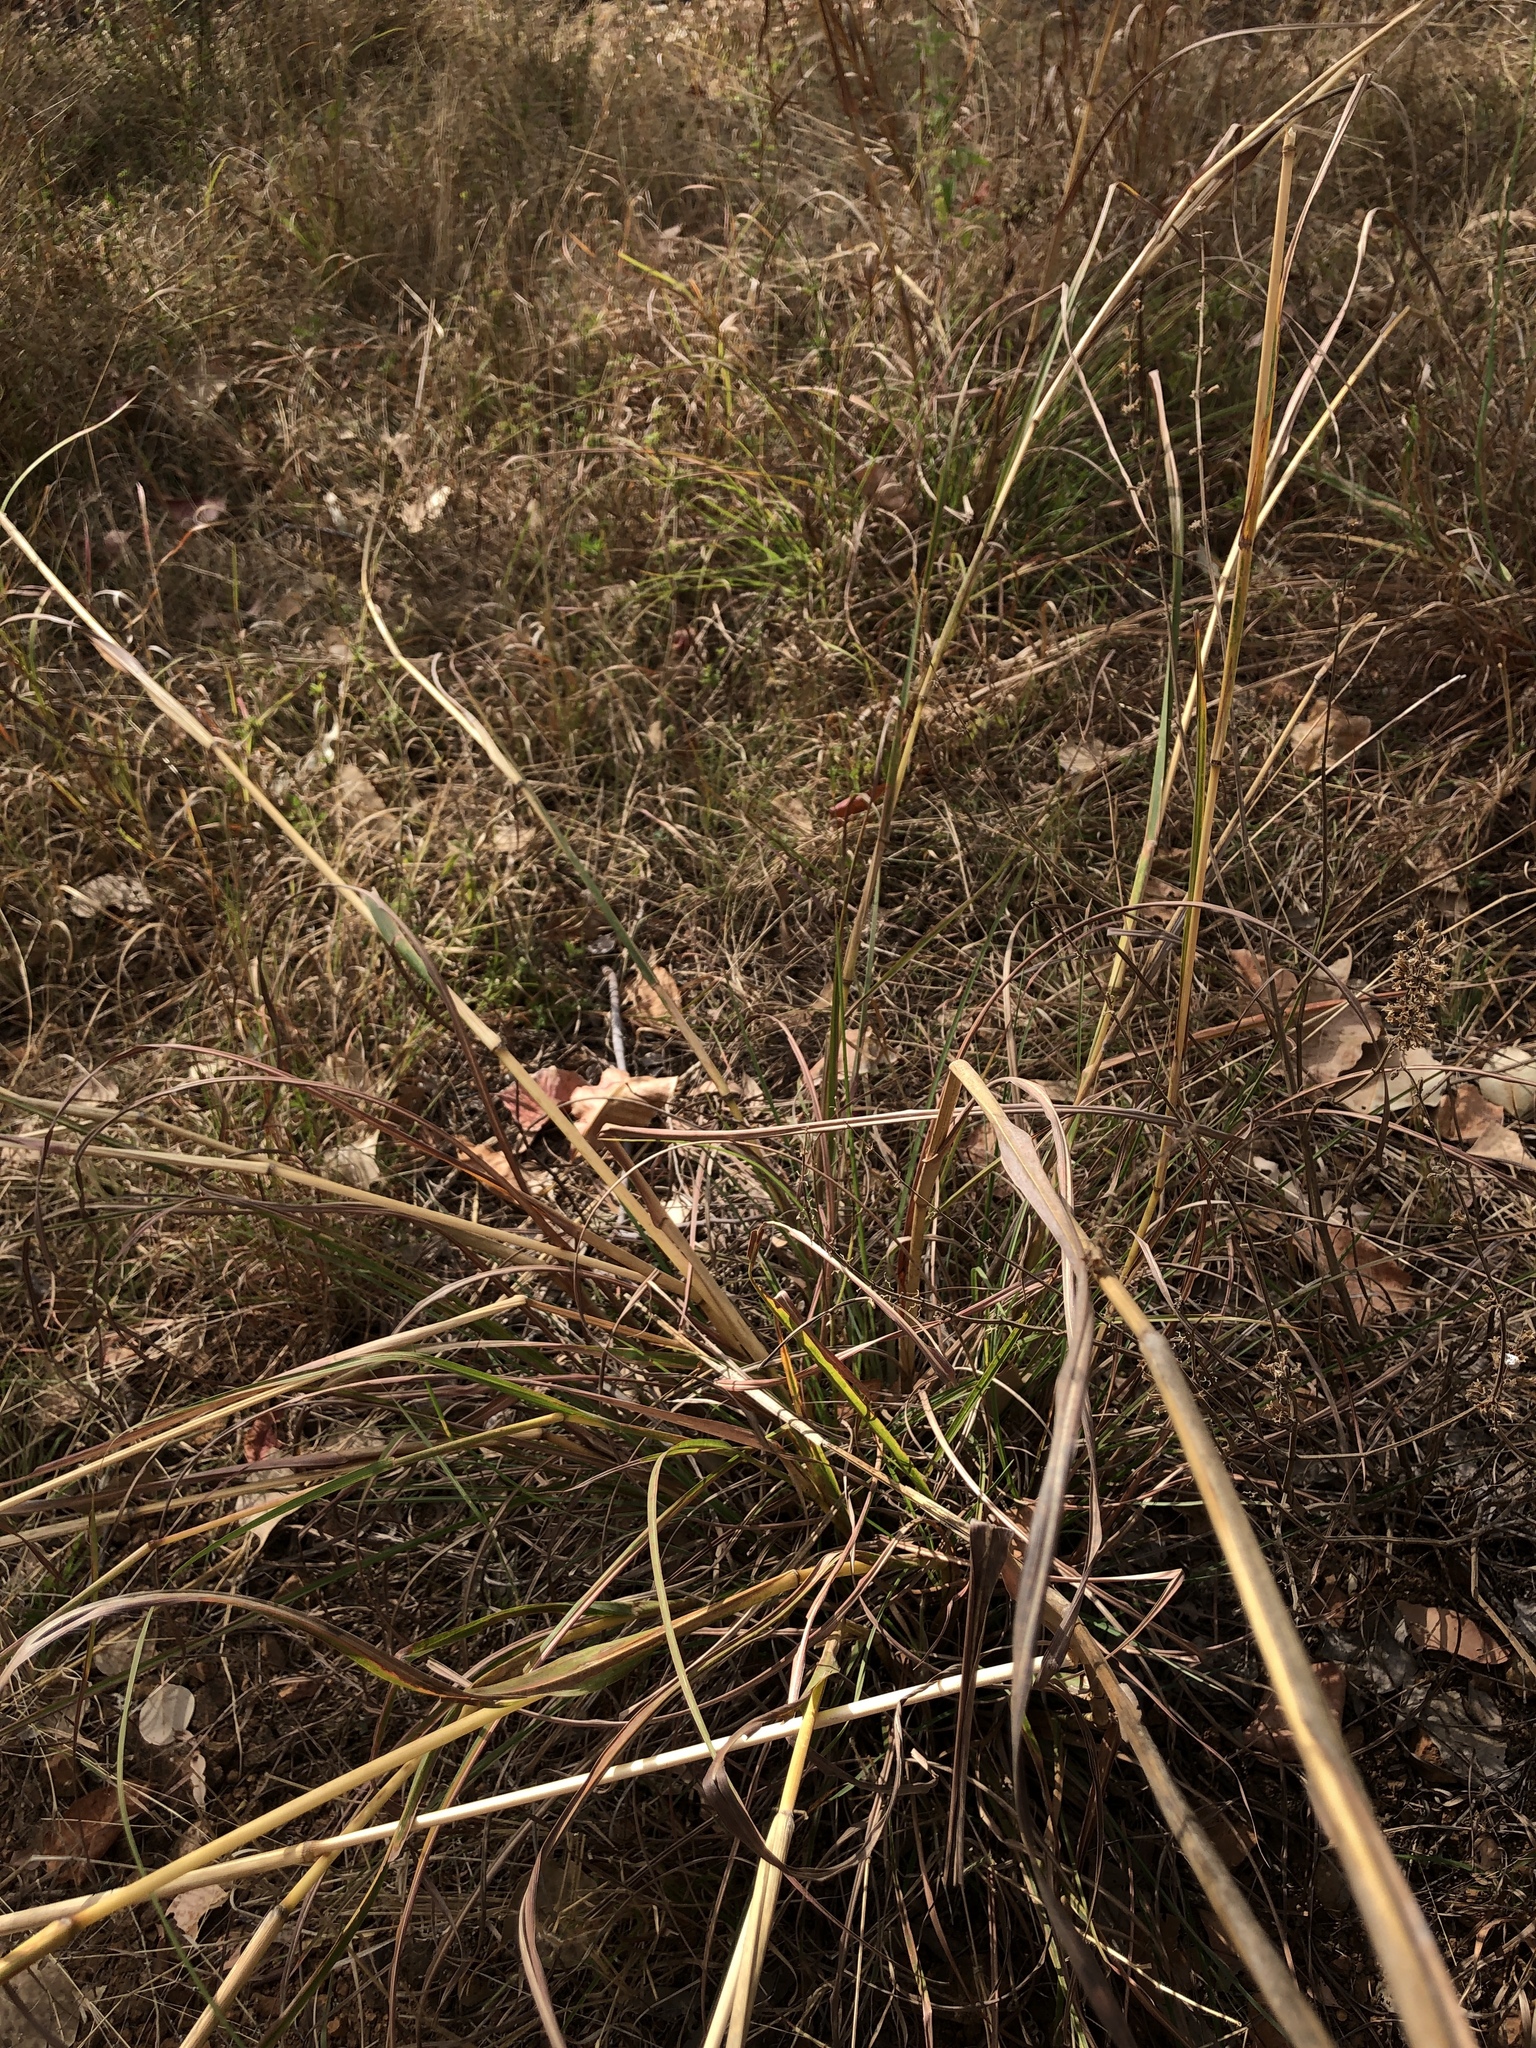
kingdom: Plantae
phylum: Tracheophyta
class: Liliopsida
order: Poales
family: Poaceae
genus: Heteropogon
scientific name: Heteropogon triticeus
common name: Sugar grass
